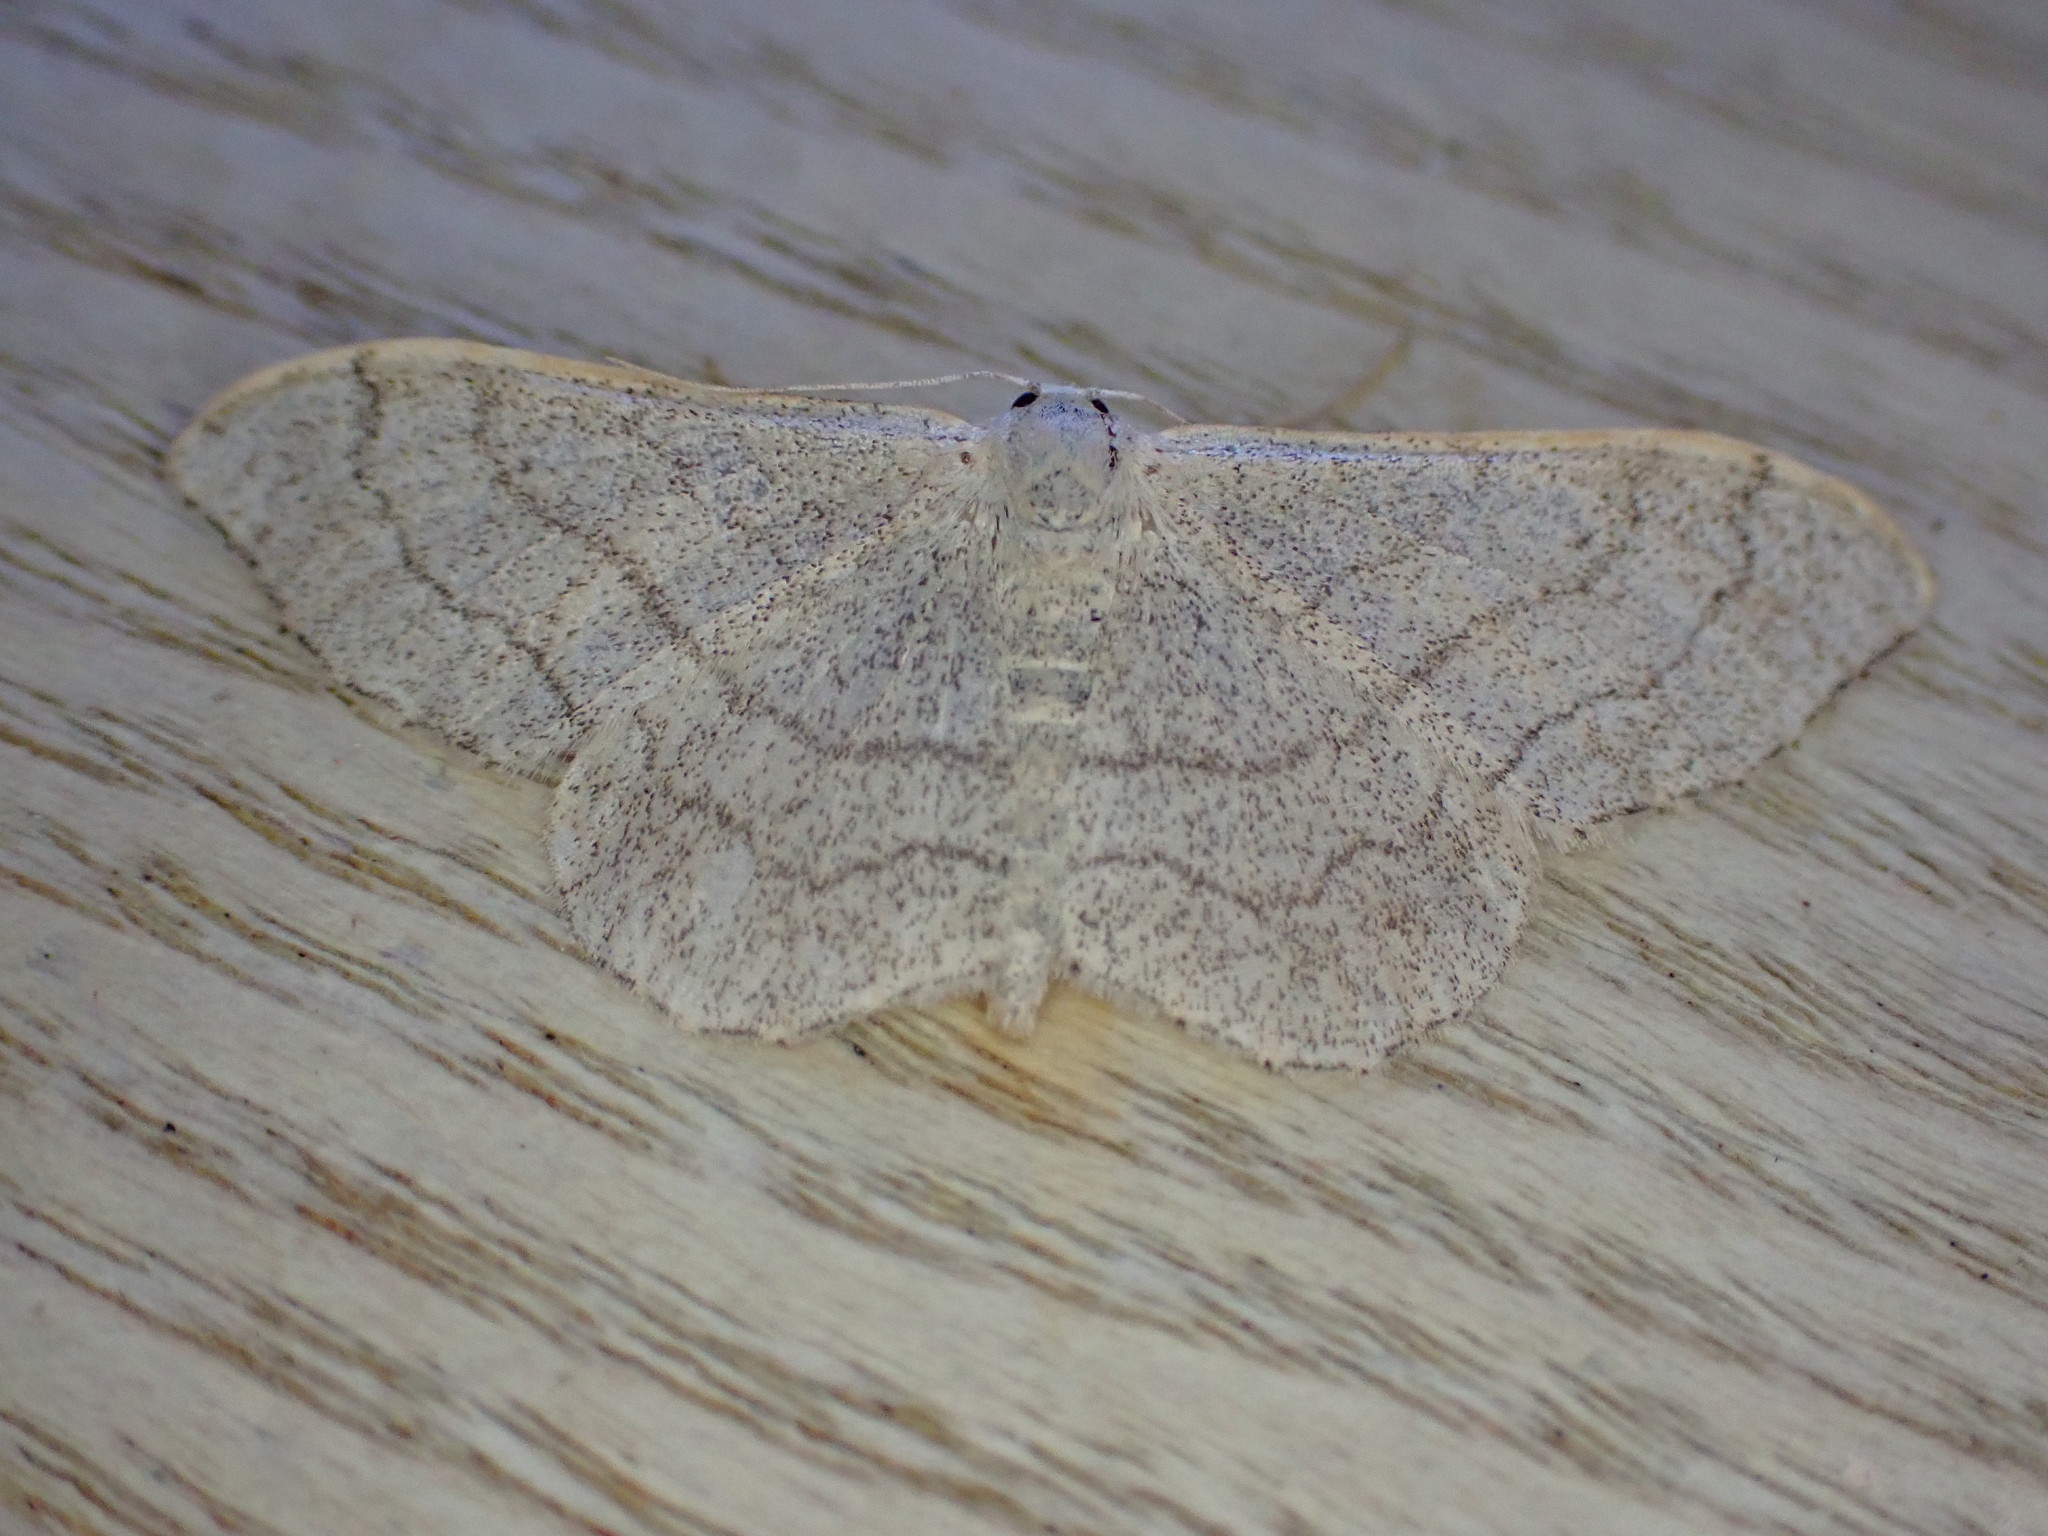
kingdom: Animalia
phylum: Arthropoda
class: Insecta
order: Lepidoptera
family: Geometridae
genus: Idaea
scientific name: Idaea aversata
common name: Riband wave
